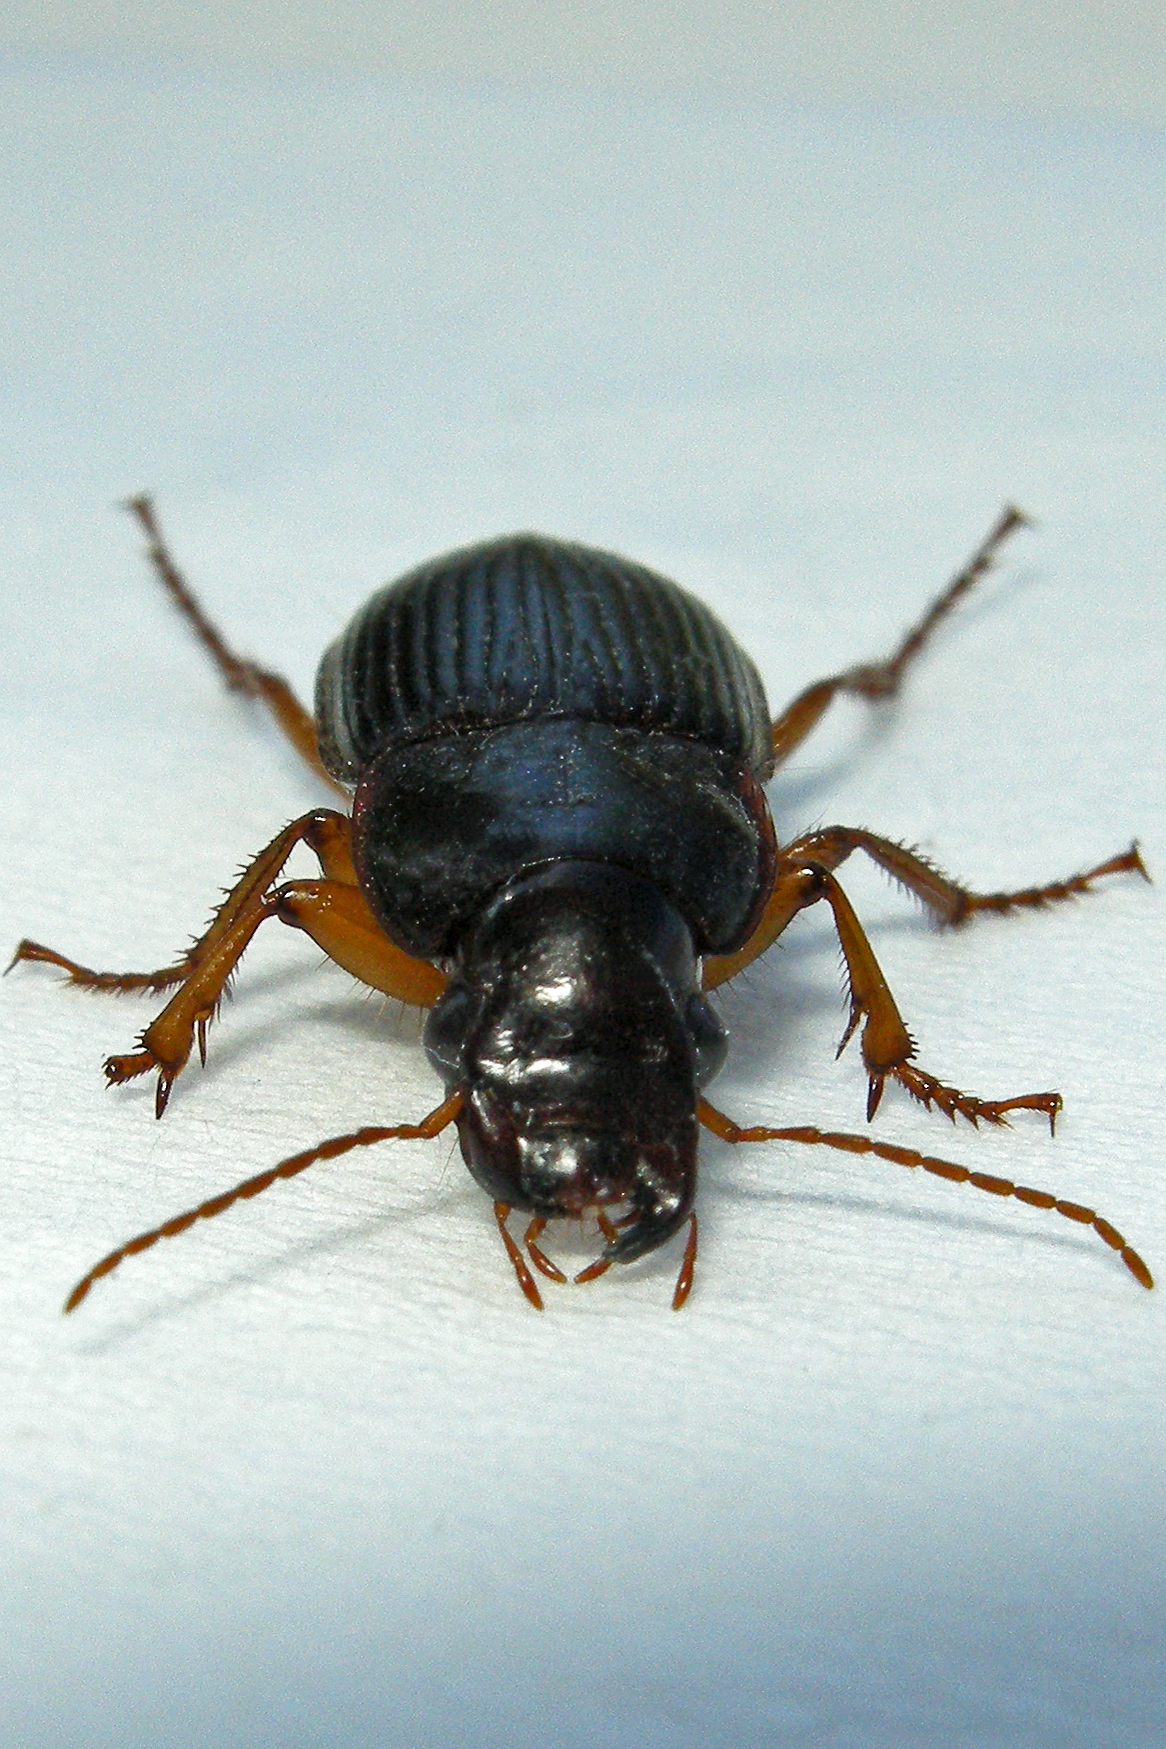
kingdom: Animalia
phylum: Arthropoda
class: Insecta
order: Coleoptera
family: Carabidae
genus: Harpalus
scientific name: Harpalus pensylvanicus
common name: Pennsylvania dingy ground beetle
